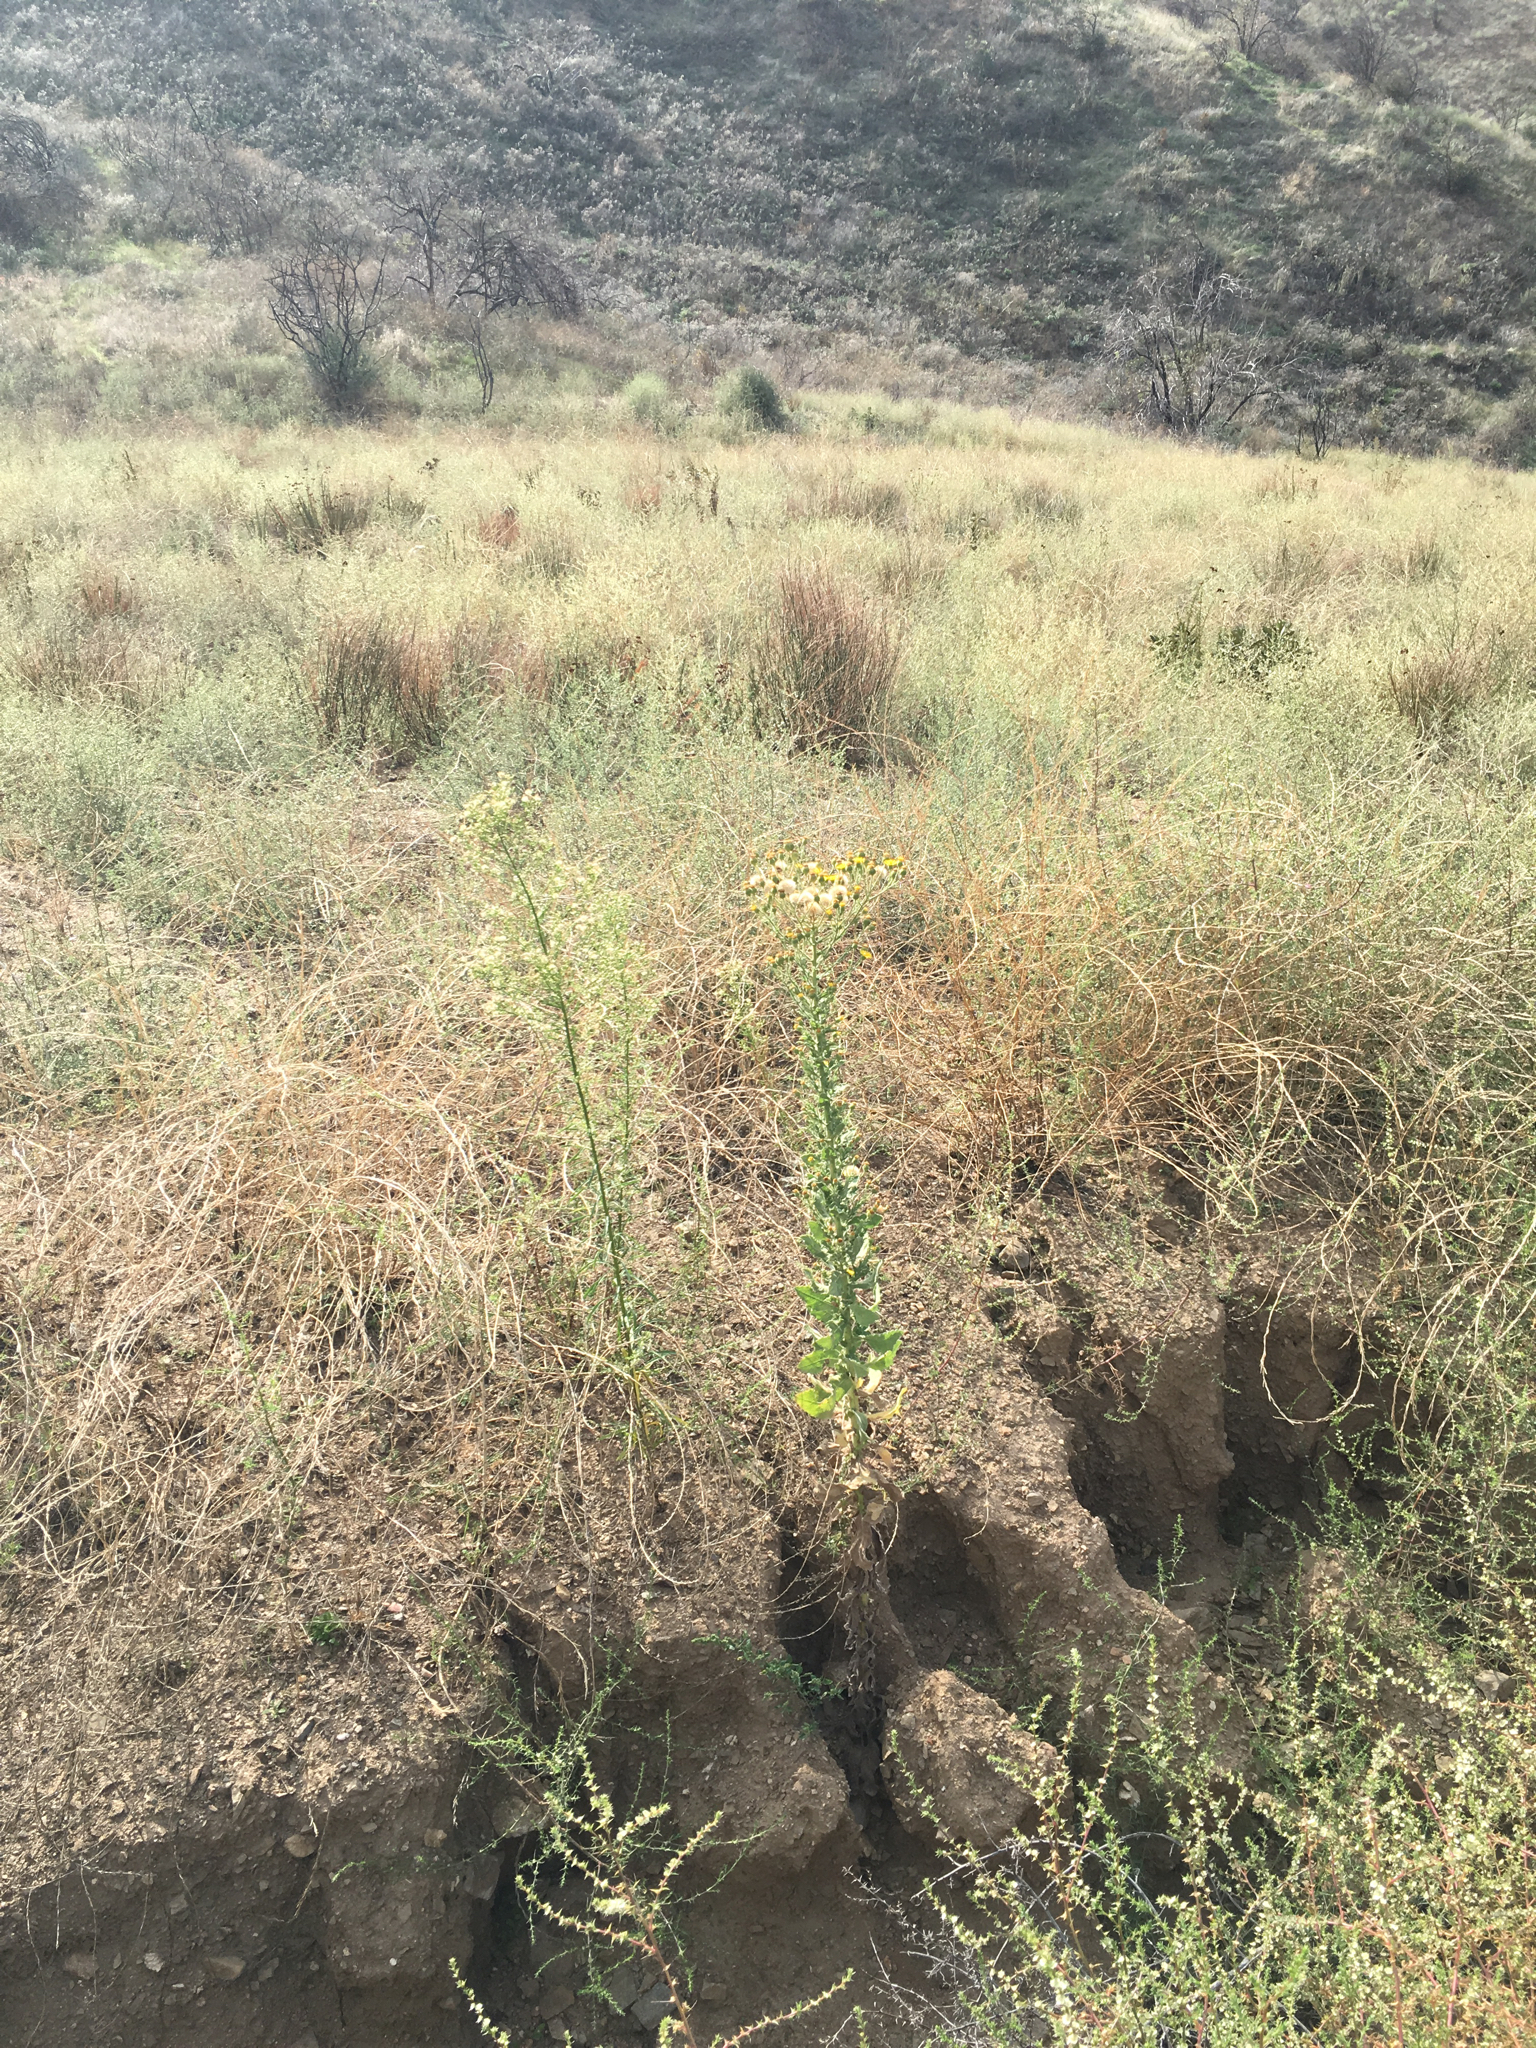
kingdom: Plantae
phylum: Tracheophyta
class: Magnoliopsida
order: Asterales
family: Asteraceae
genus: Heterotheca
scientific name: Heterotheca grandiflora
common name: Telegraphweed
